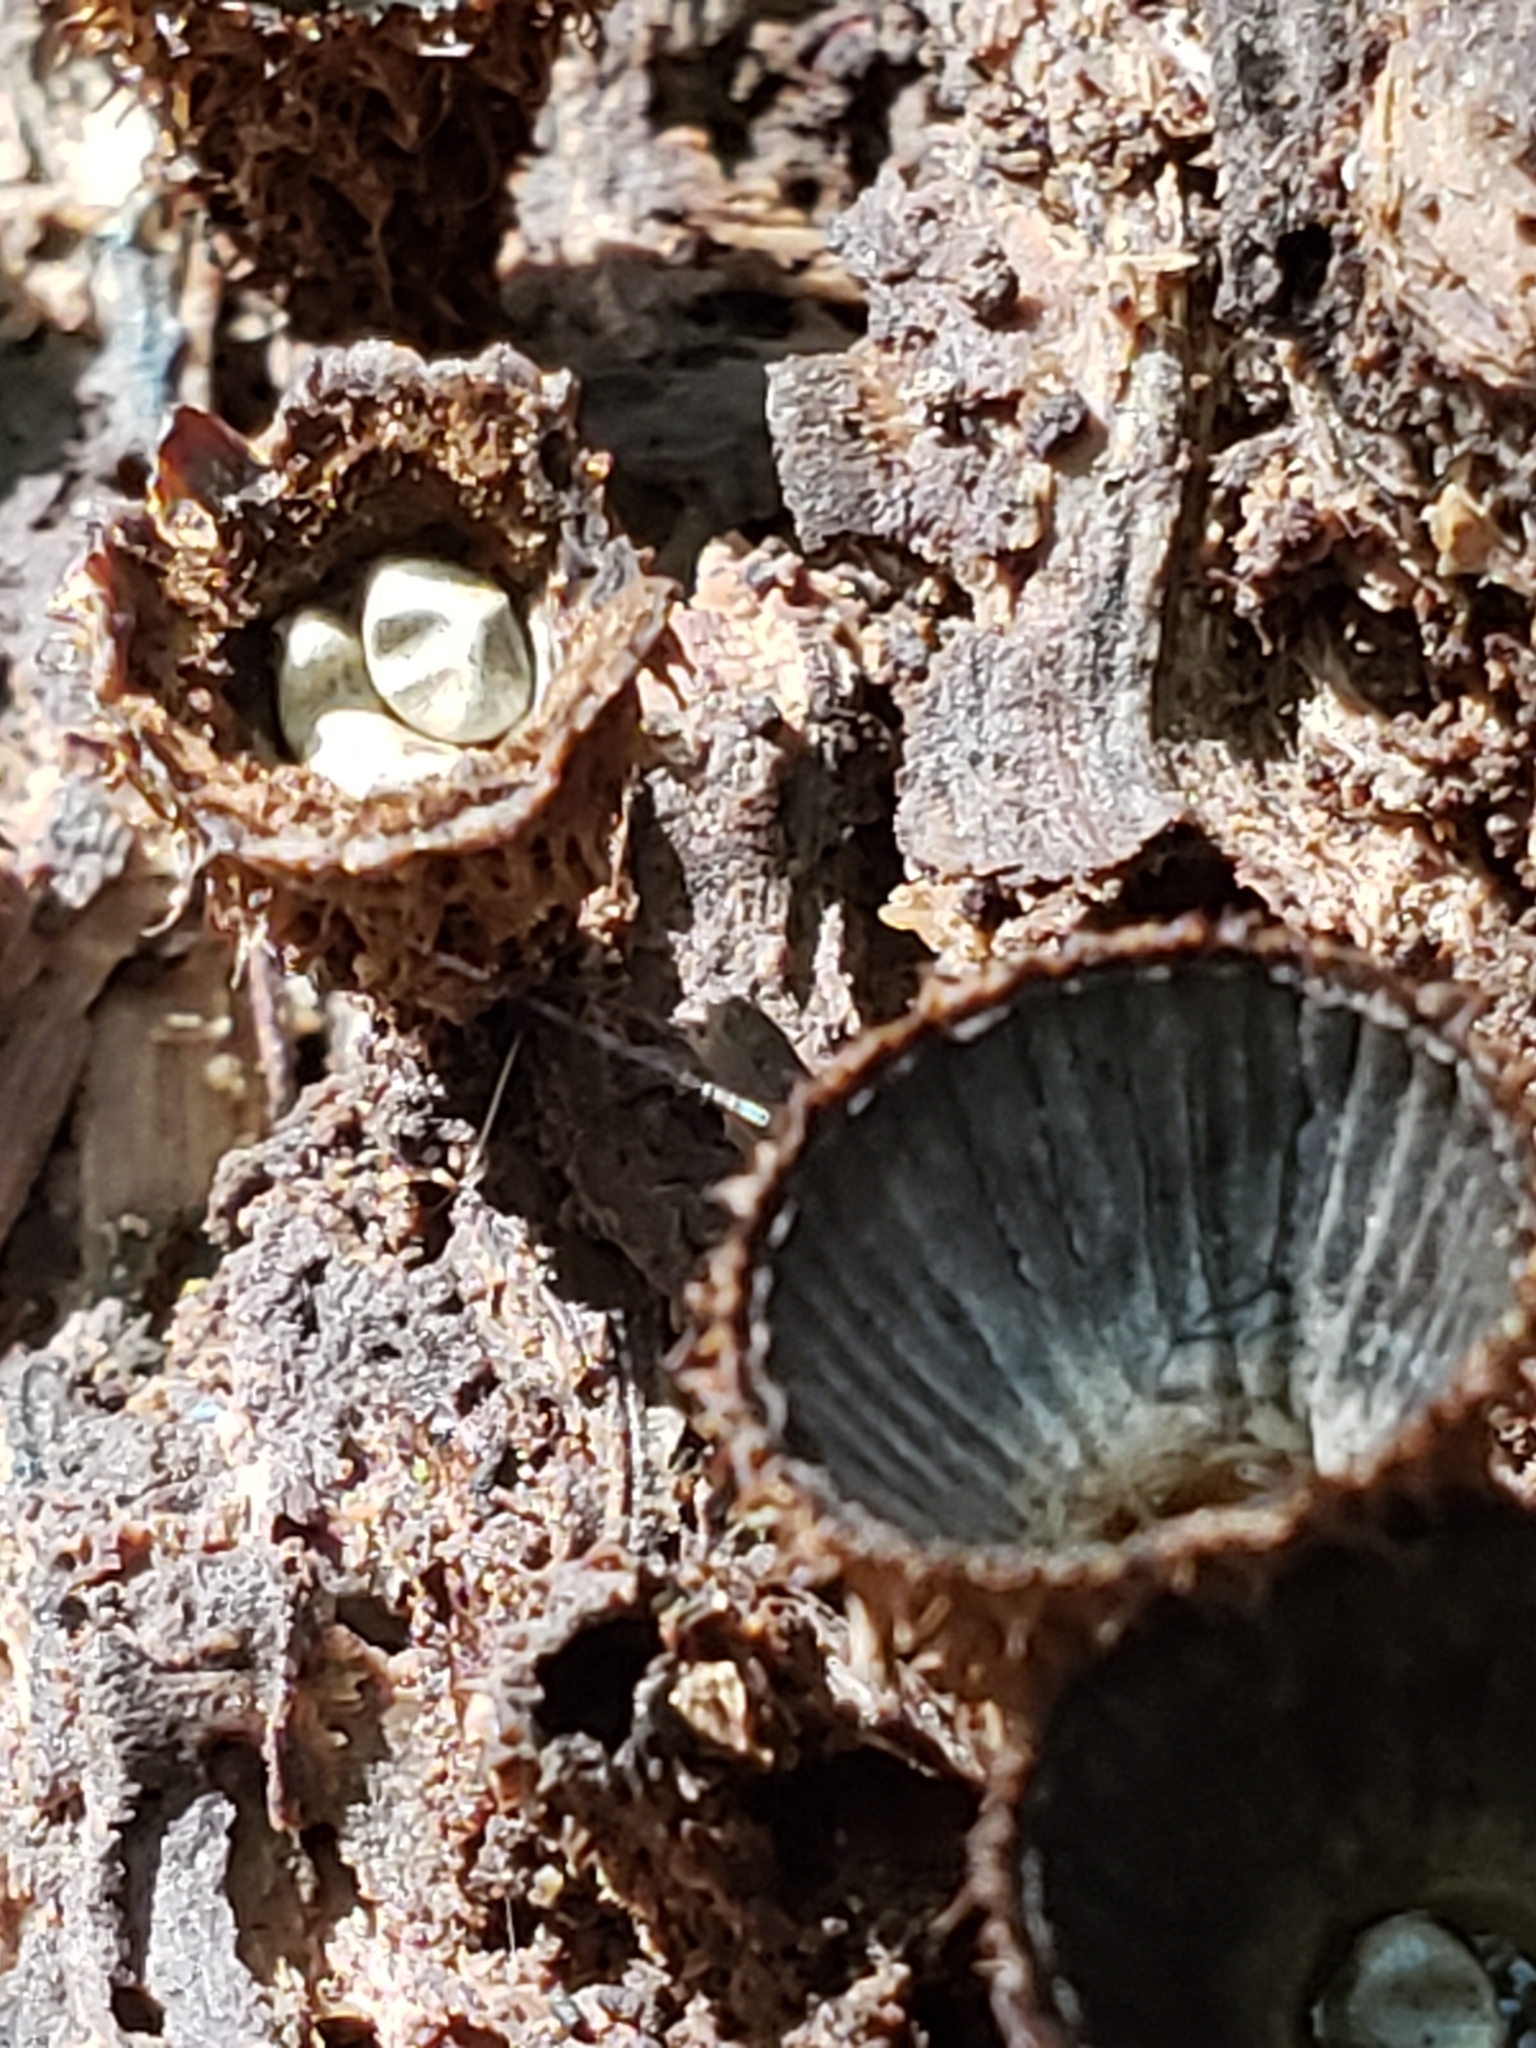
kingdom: Fungi
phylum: Basidiomycota
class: Agaricomycetes
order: Agaricales
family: Agaricaceae
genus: Cyathus
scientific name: Cyathus striatus
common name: Fluted bird's nest
